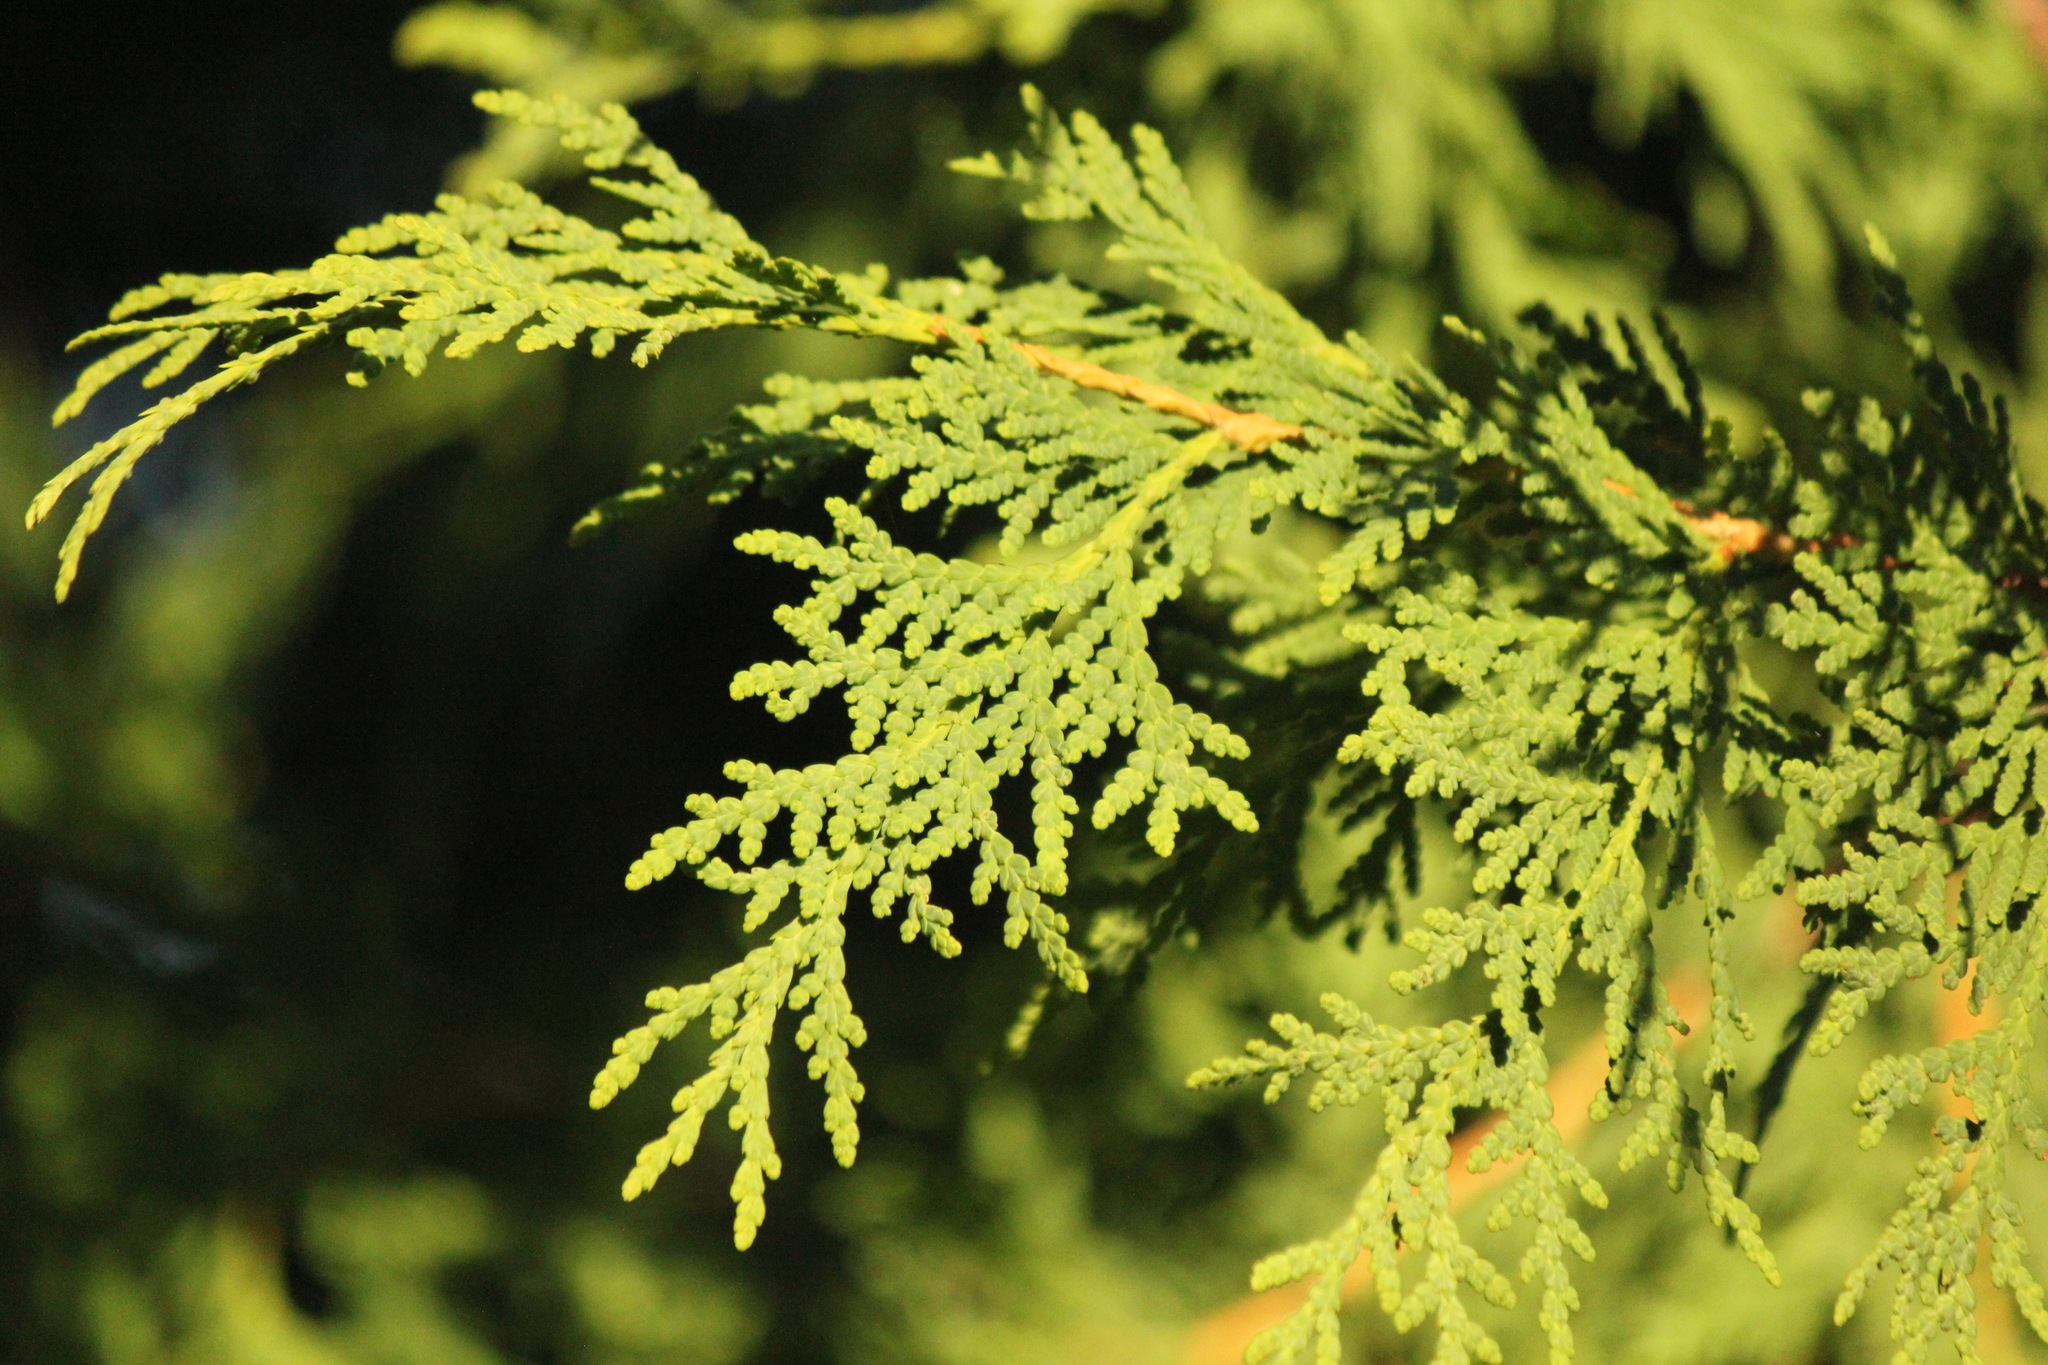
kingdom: Plantae
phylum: Tracheophyta
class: Pinopsida
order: Pinales
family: Cupressaceae
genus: Thuja
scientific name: Thuja occidentalis
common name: Northern white-cedar
